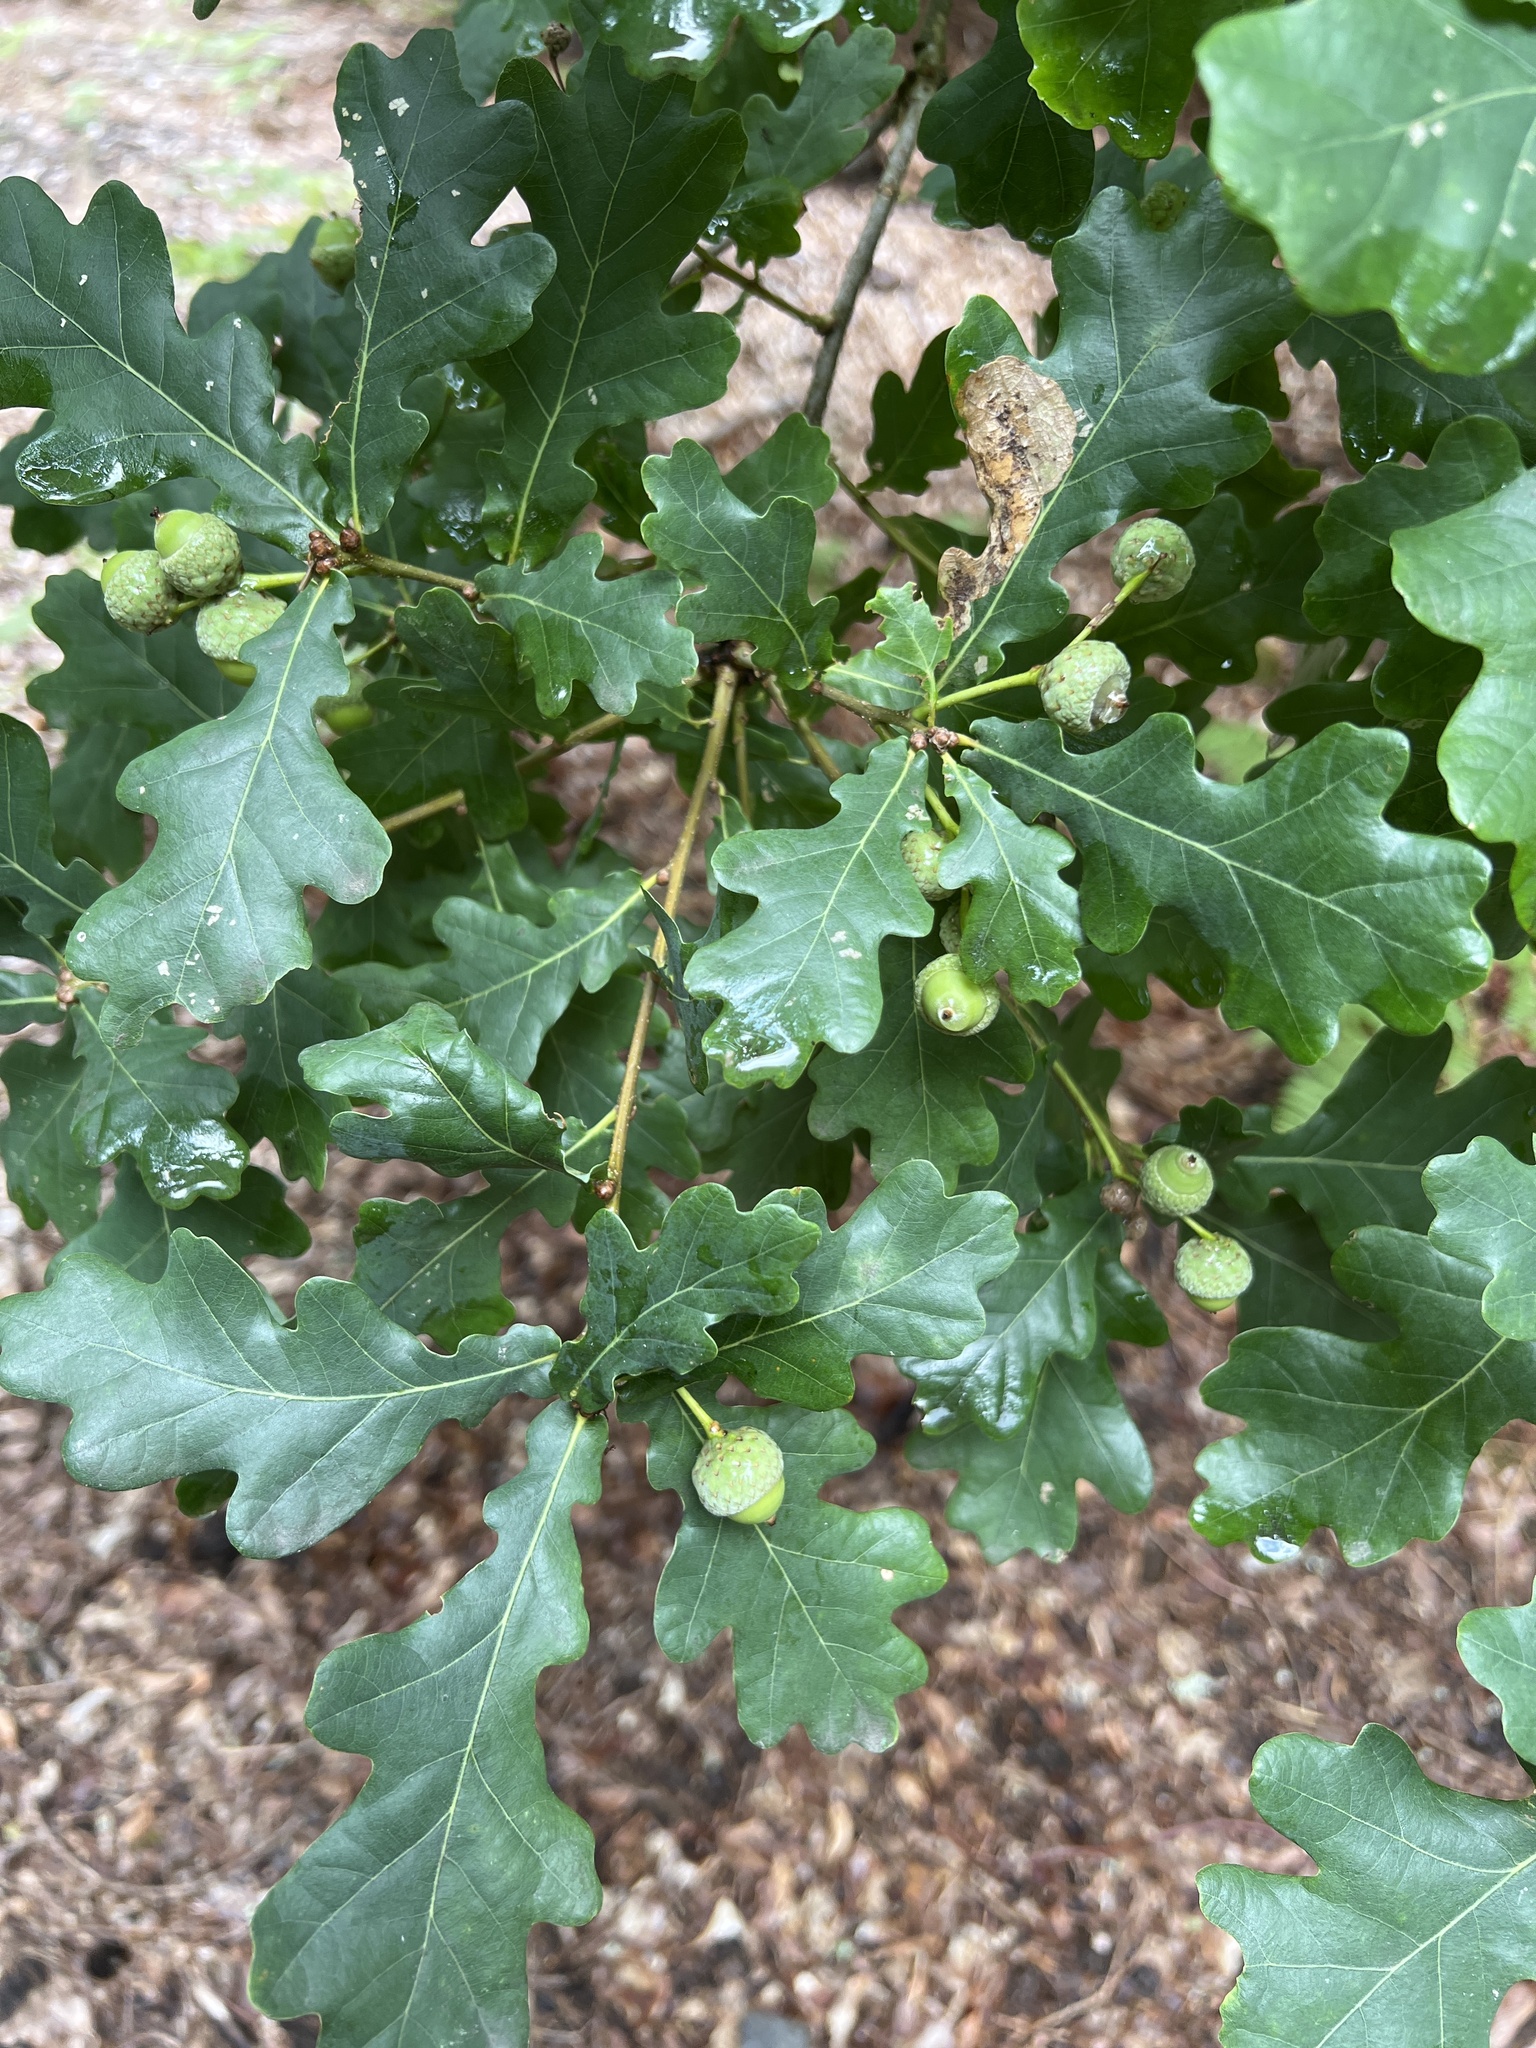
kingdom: Plantae
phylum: Tracheophyta
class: Magnoliopsida
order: Fagales
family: Fagaceae
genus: Quercus
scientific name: Quercus robur
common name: Pedunculate oak
